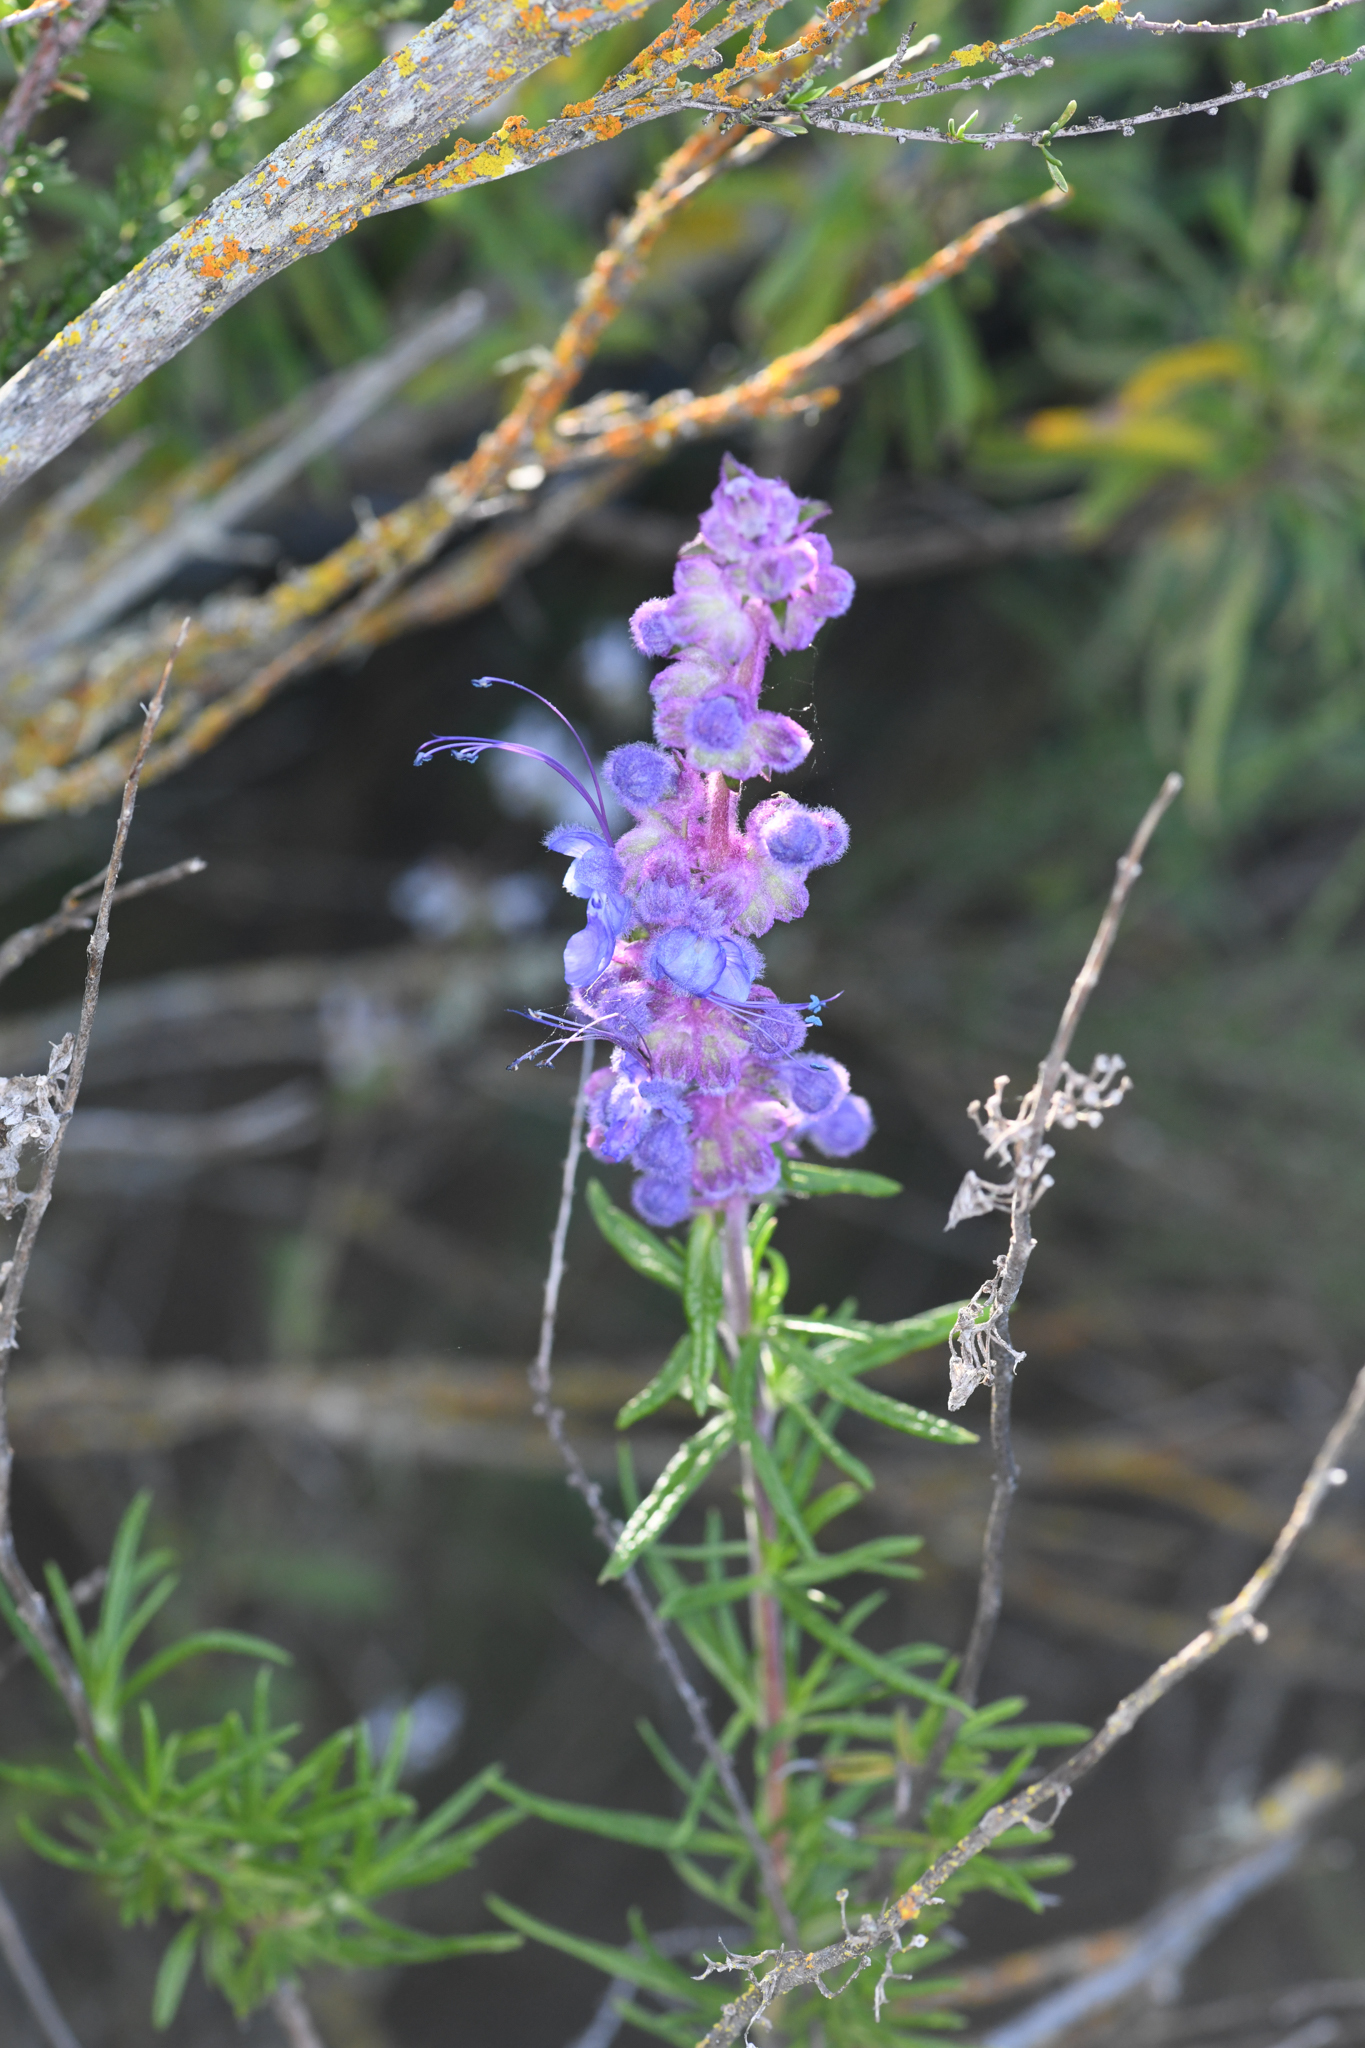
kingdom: Plantae
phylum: Tracheophyta
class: Magnoliopsida
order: Lamiales
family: Lamiaceae
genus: Trichostema
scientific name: Trichostema lanatum
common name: Woolly bluecurls
